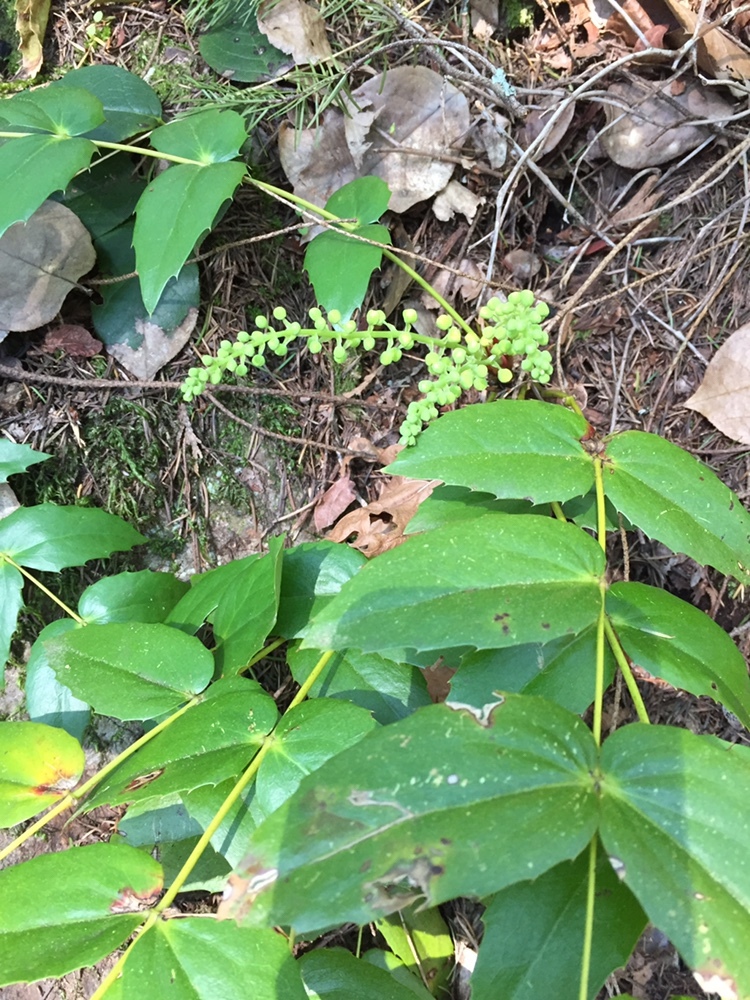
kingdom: Plantae
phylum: Tracheophyta
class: Magnoliopsida
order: Ranunculales
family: Berberidaceae
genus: Mahonia
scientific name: Mahonia nervosa
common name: Cascade oregon-grape
